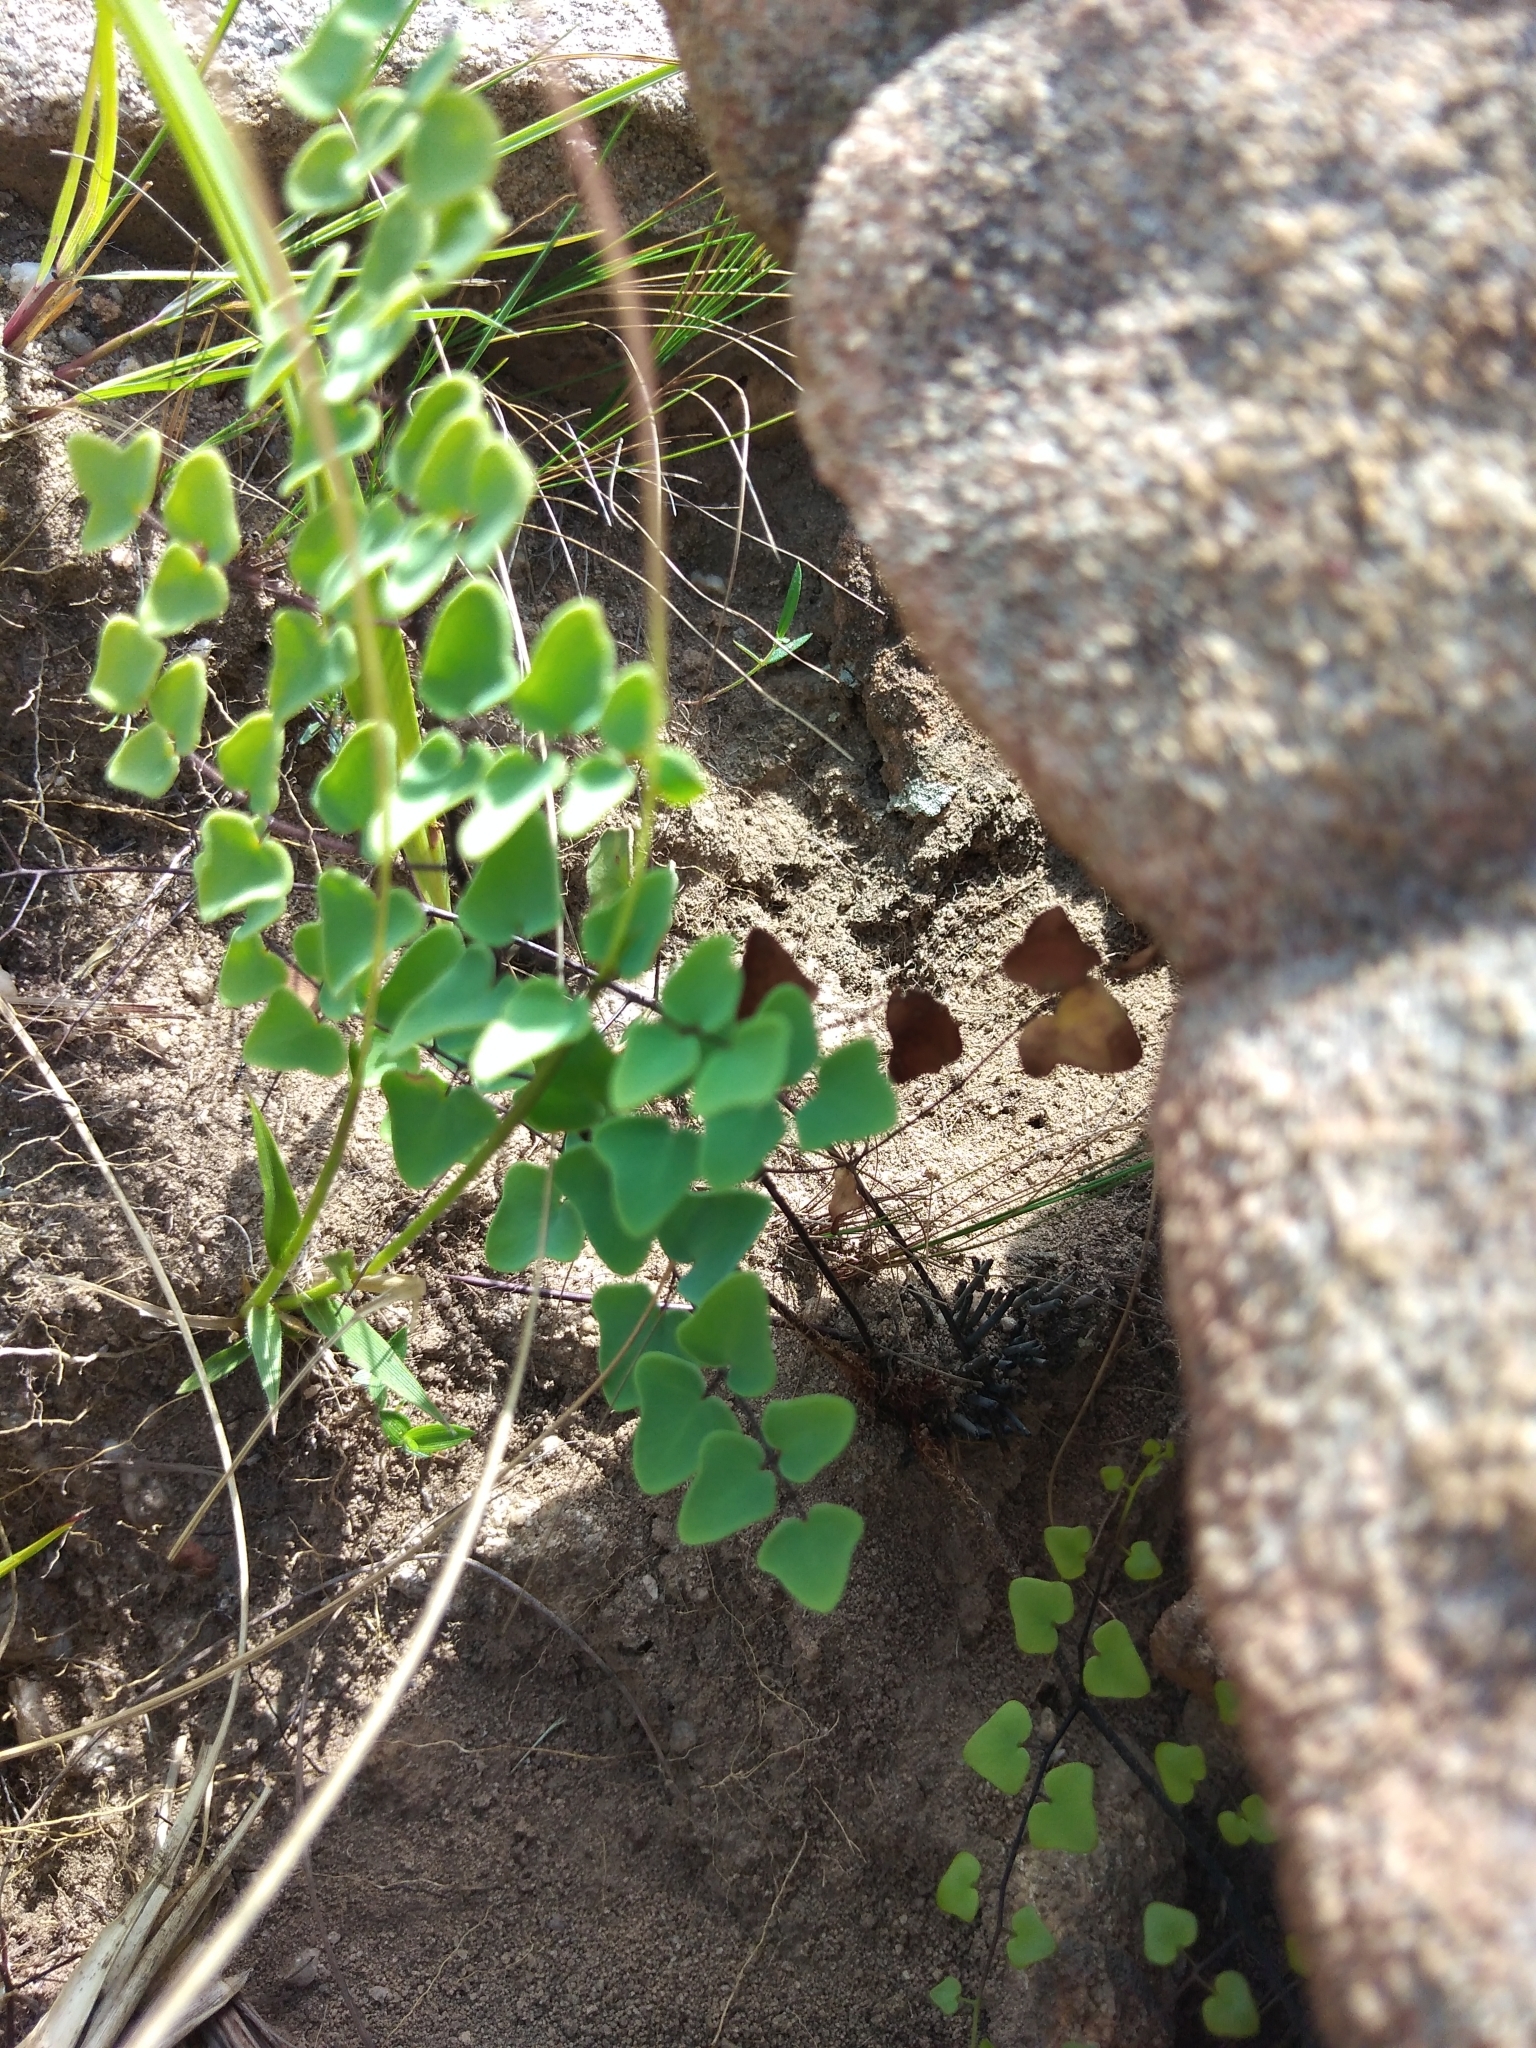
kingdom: Plantae
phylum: Tracheophyta
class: Polypodiopsida
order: Polypodiales
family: Pteridaceae
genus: Pellaea
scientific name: Pellaea calomelanos
